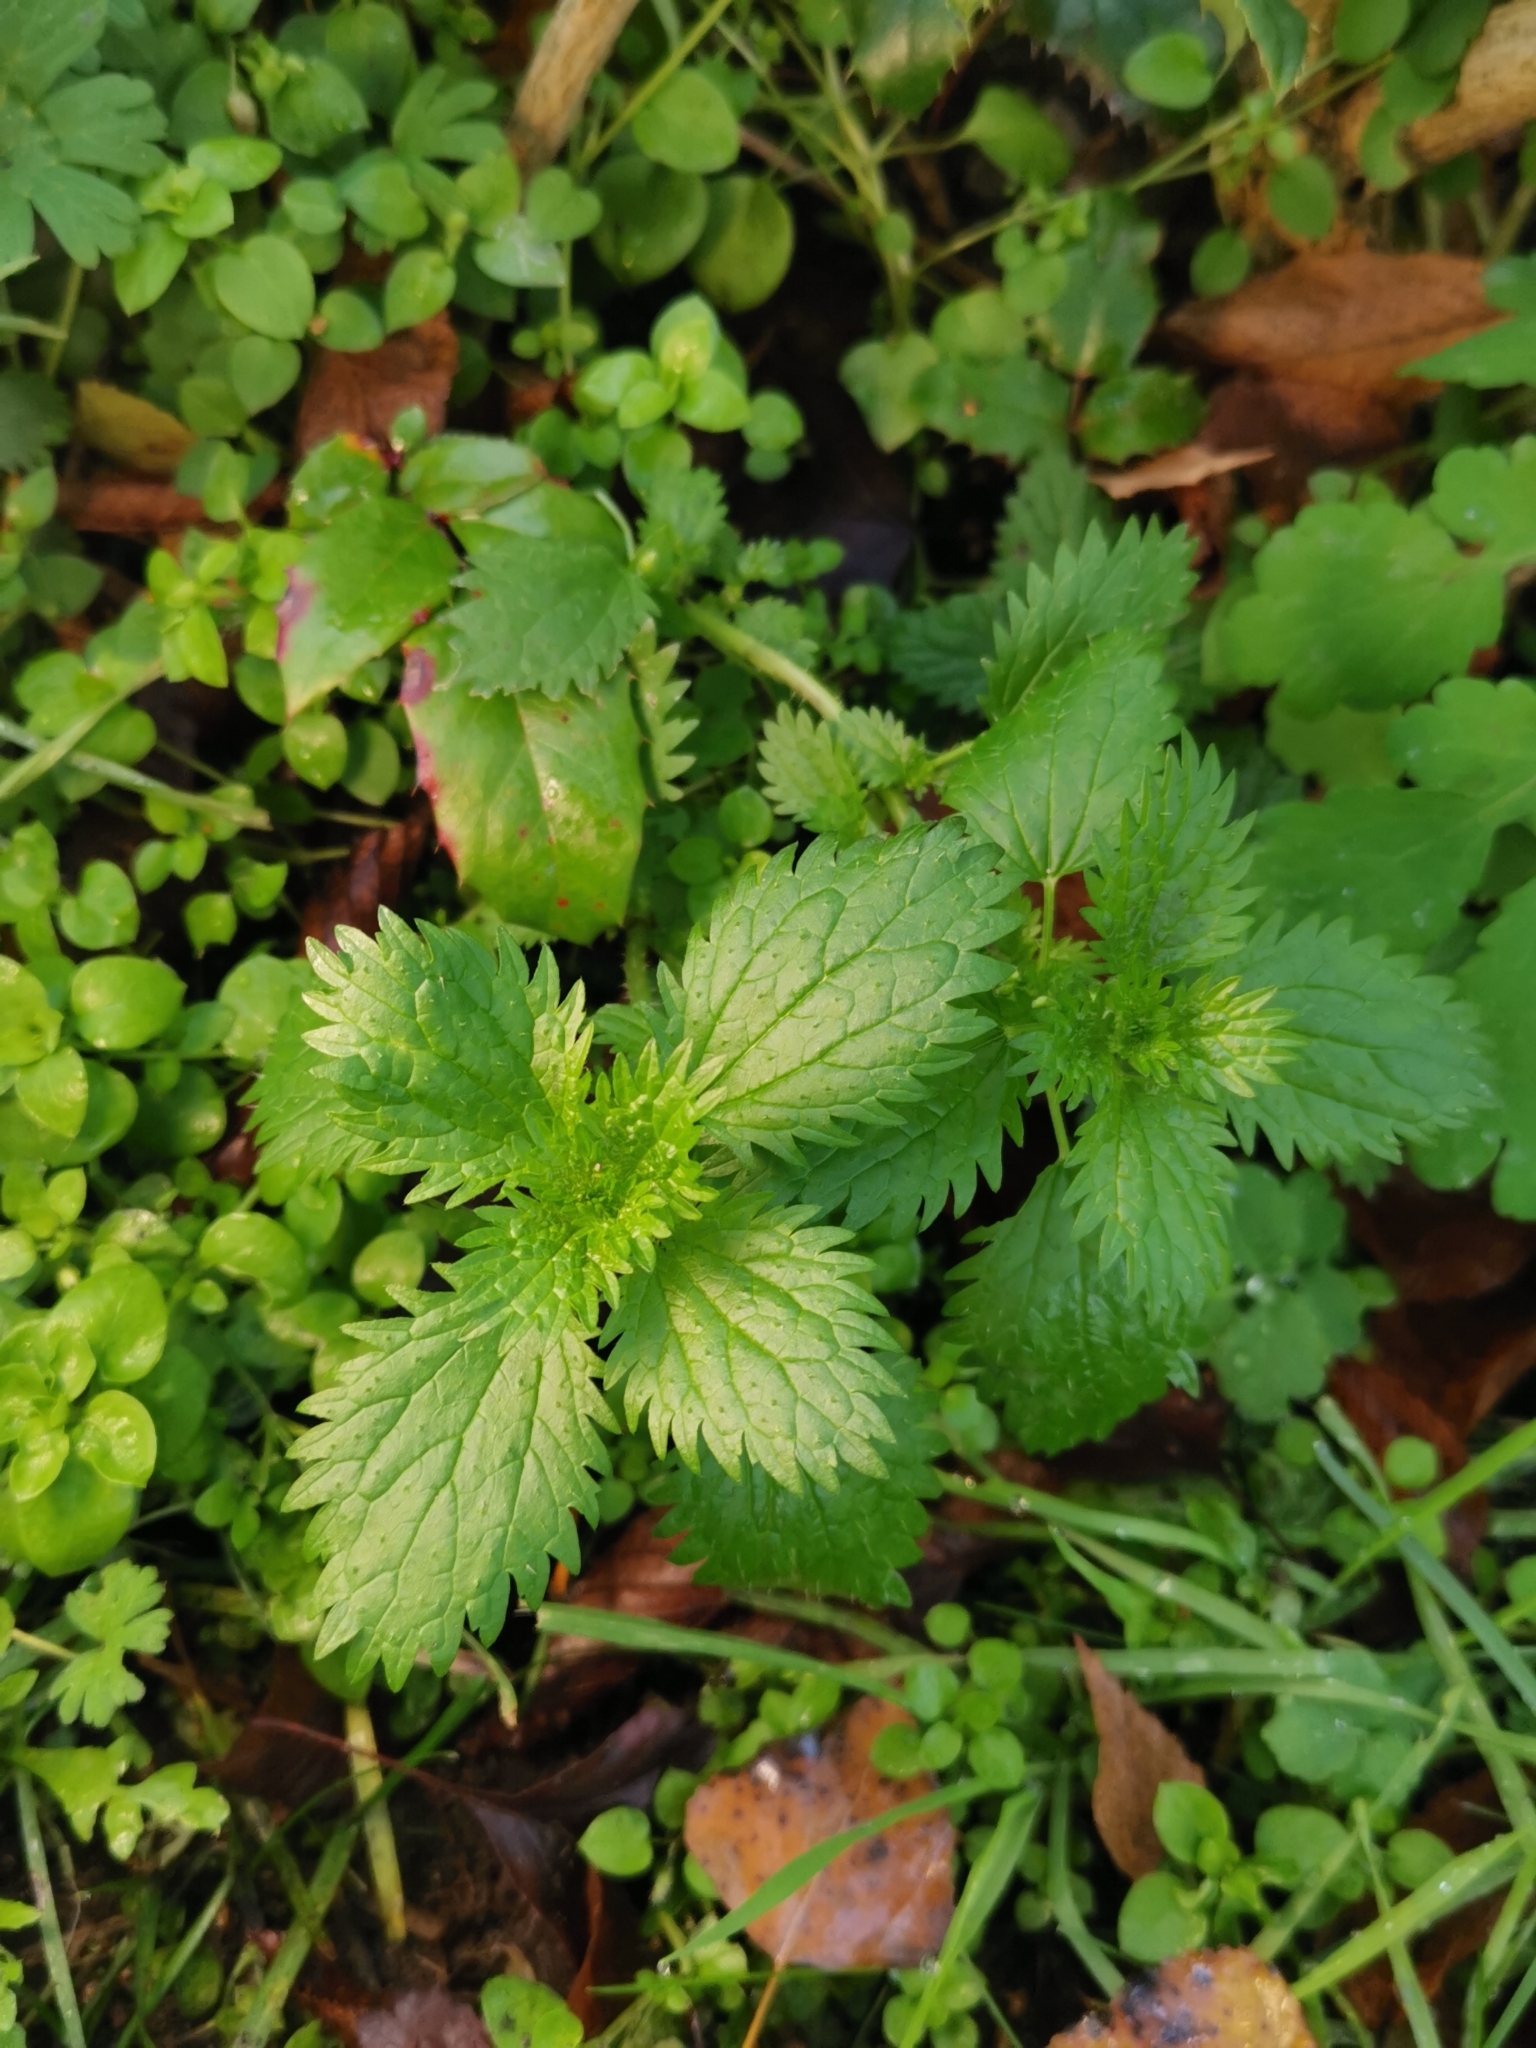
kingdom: Plantae
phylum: Tracheophyta
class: Magnoliopsida
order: Rosales
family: Urticaceae
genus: Urtica
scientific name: Urtica urens
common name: Dwarf nettle
